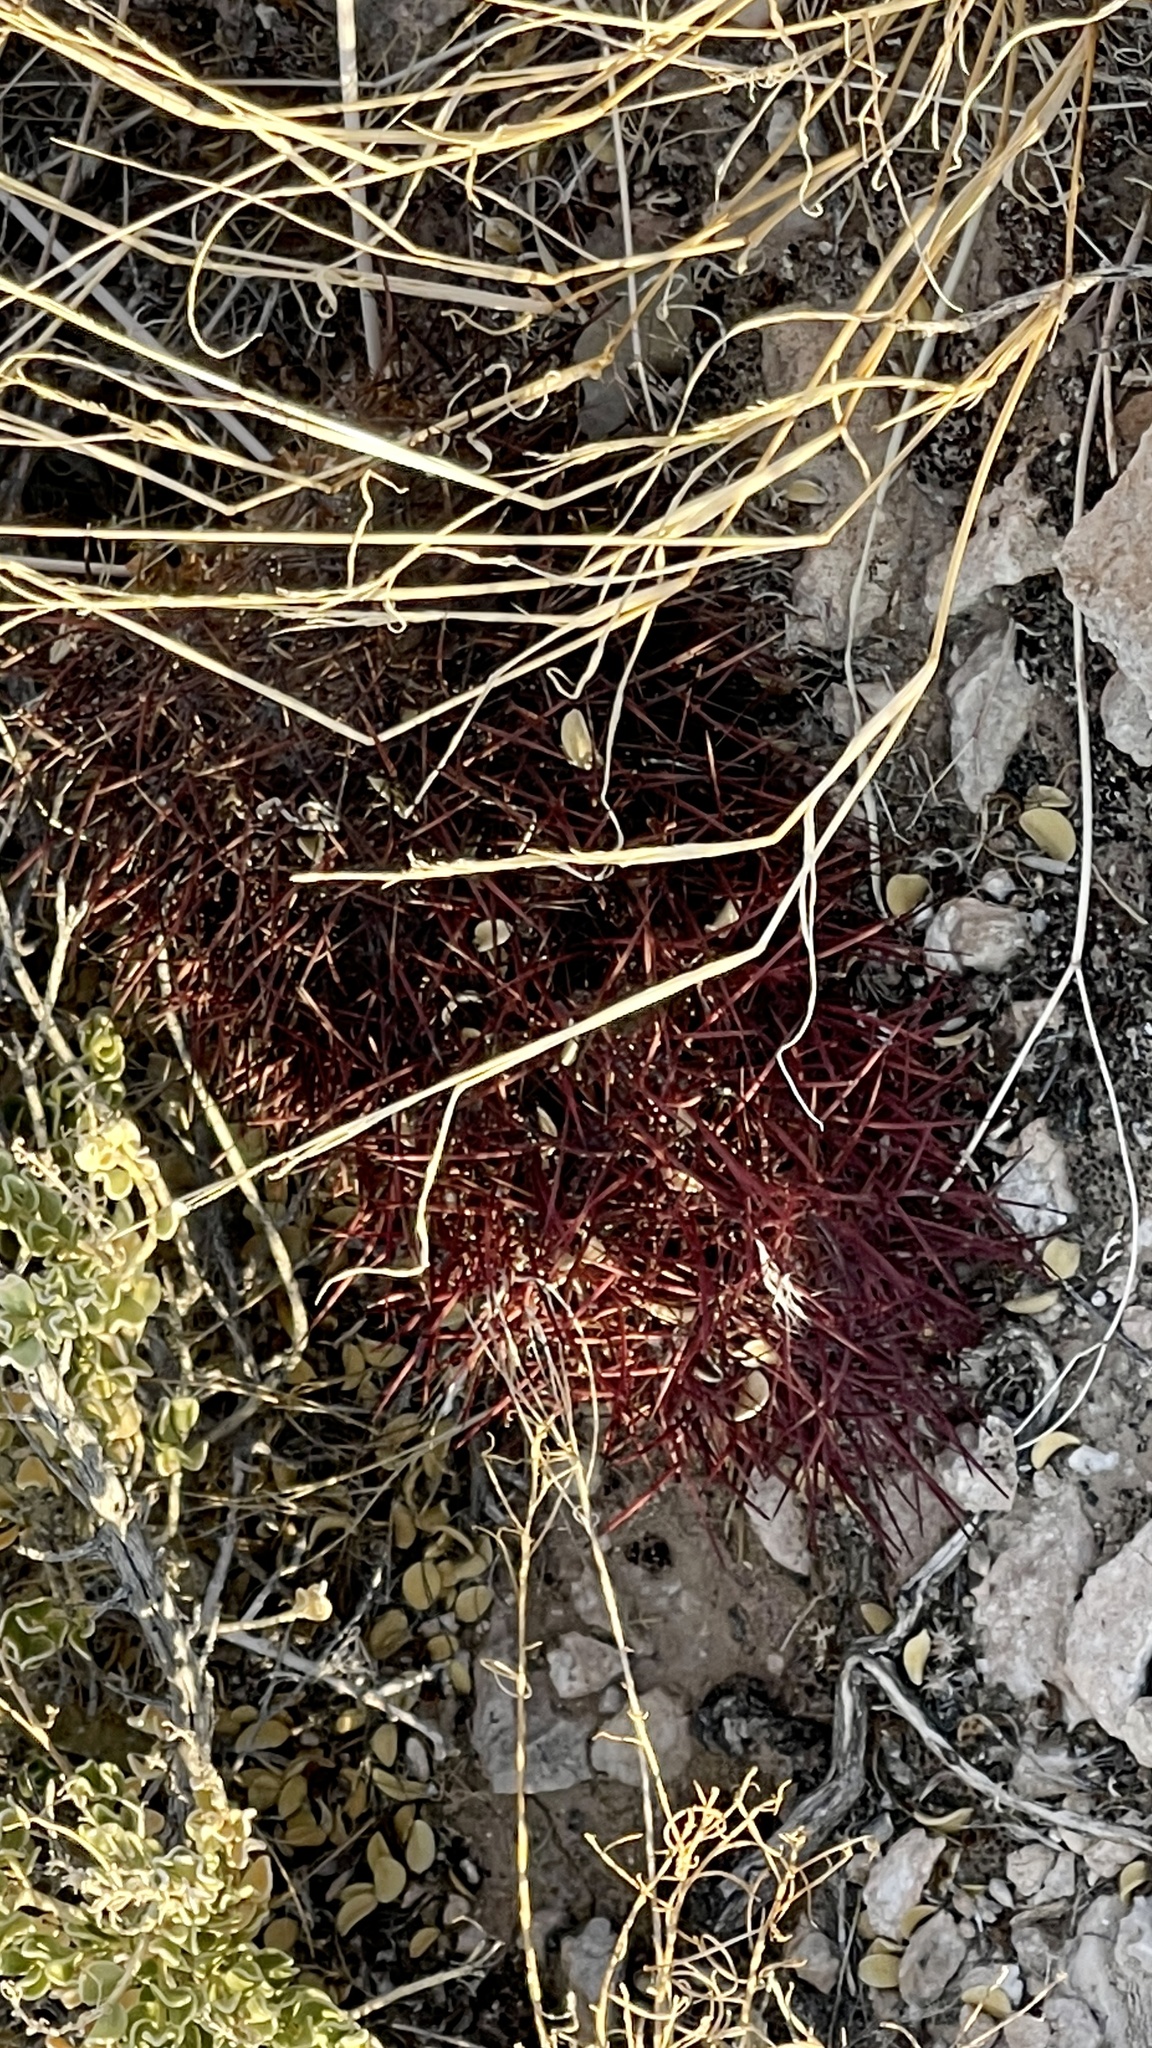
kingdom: Plantae
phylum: Tracheophyta
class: Magnoliopsida
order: Caryophyllales
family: Cactaceae
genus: Sclerocactus
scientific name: Sclerocactus johnsonii
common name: Eight-spine fishhook cactus
